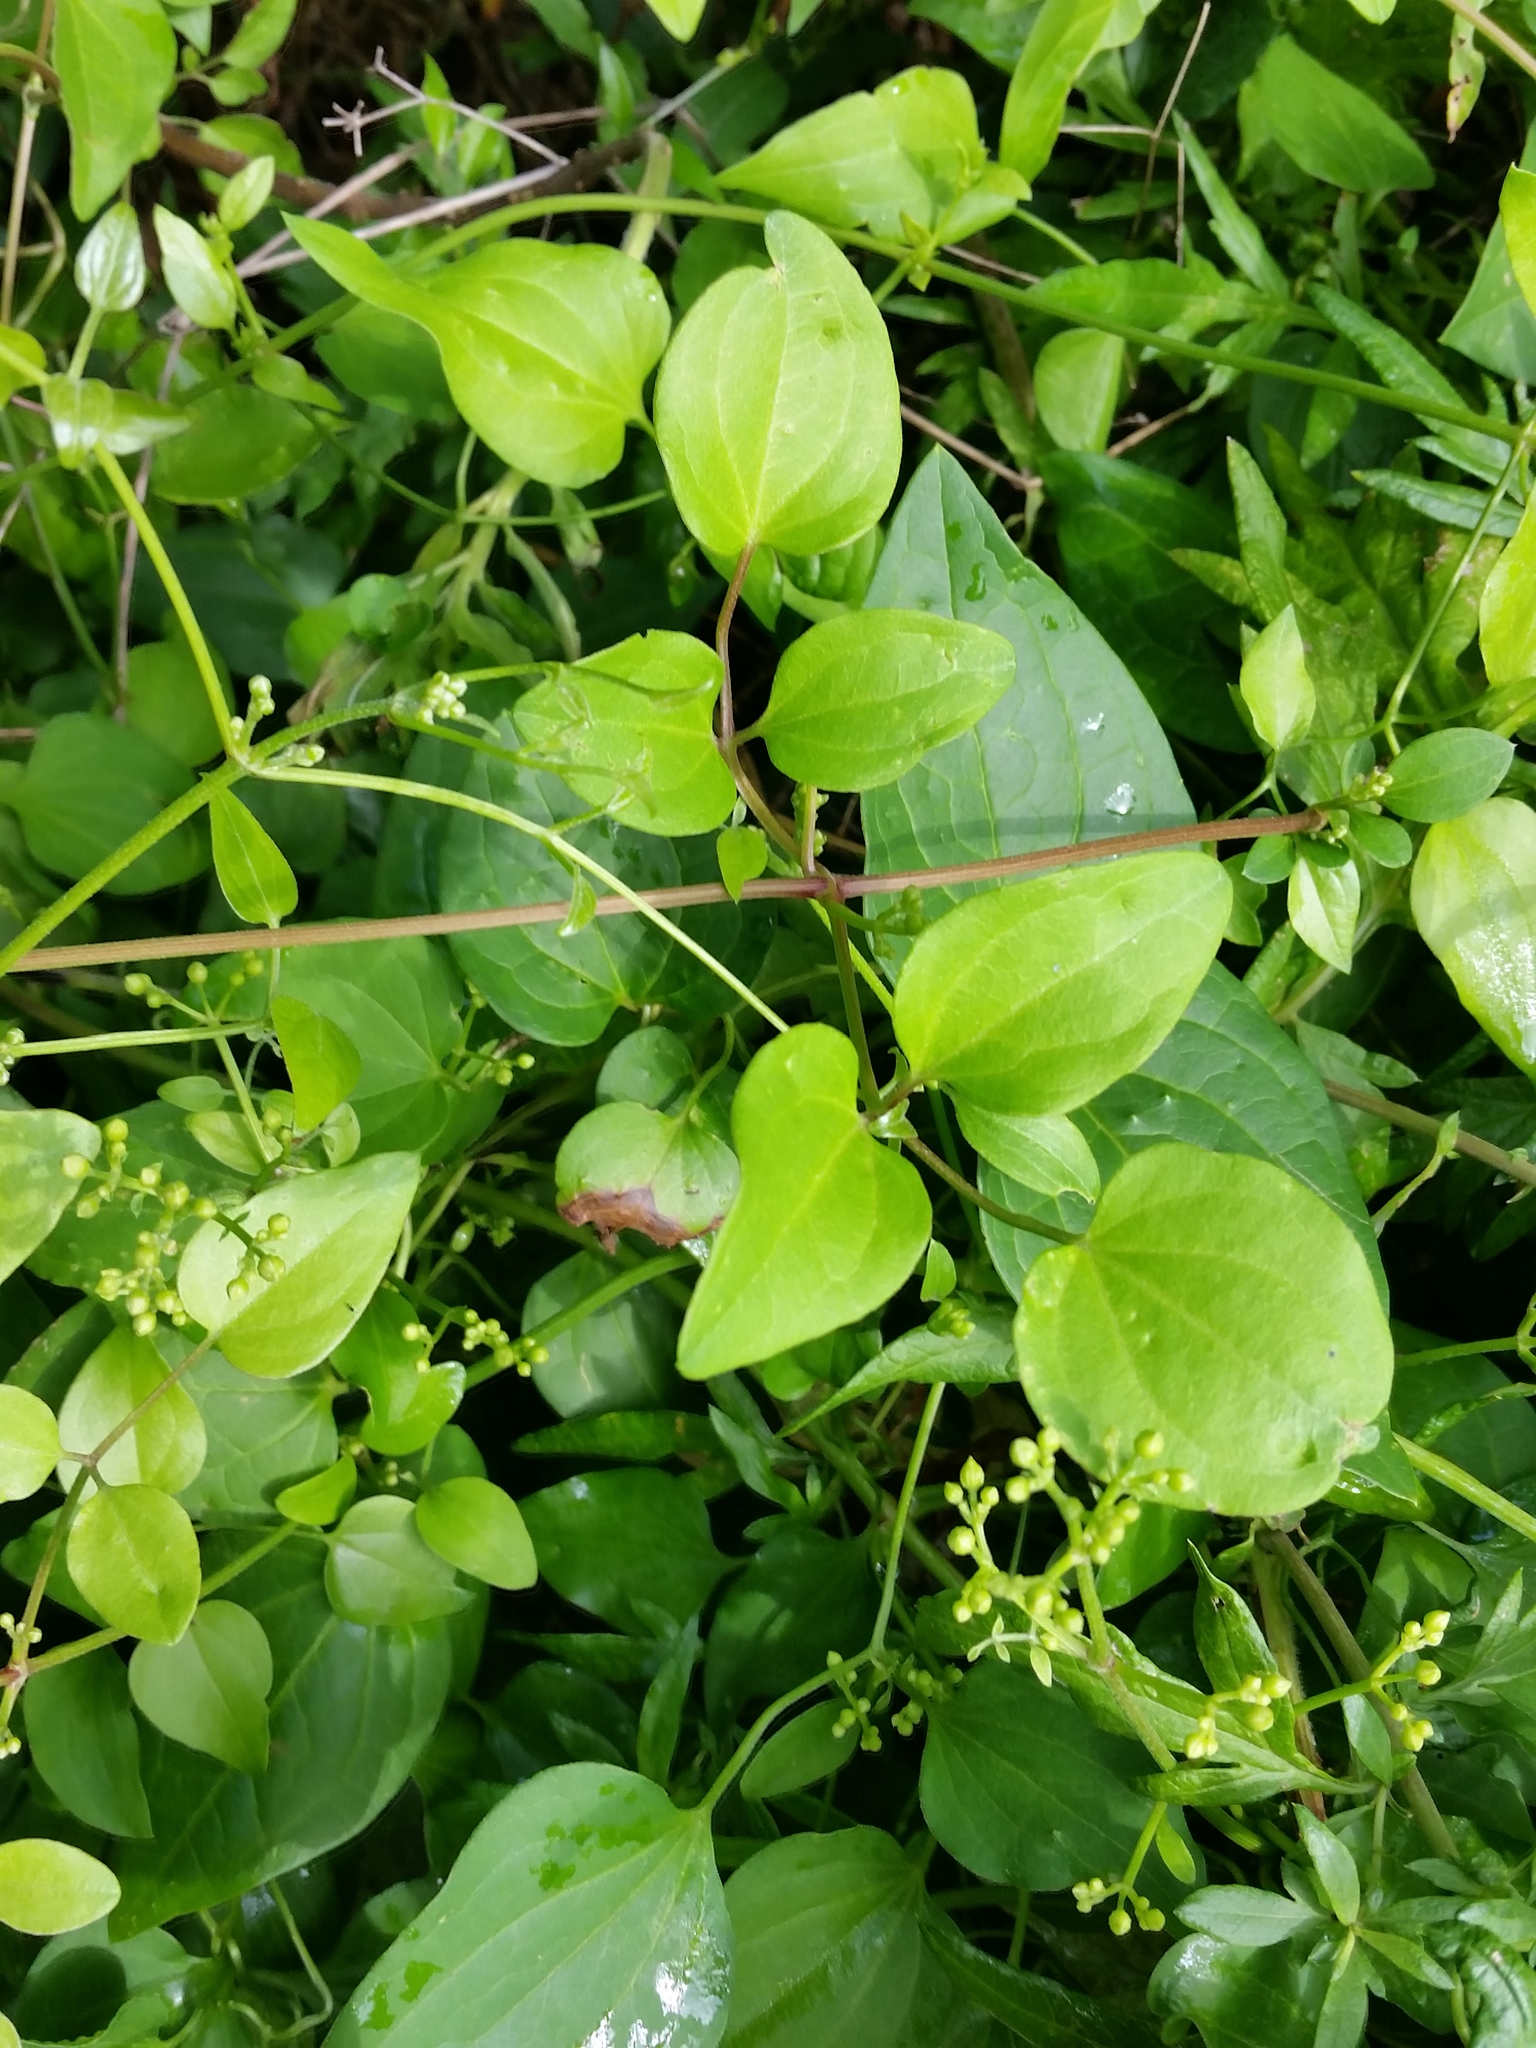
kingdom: Plantae
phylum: Tracheophyta
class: Magnoliopsida
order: Ranunculales
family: Ranunculaceae
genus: Clematis
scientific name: Clematis terniflora
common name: Sweet autumn clematis
